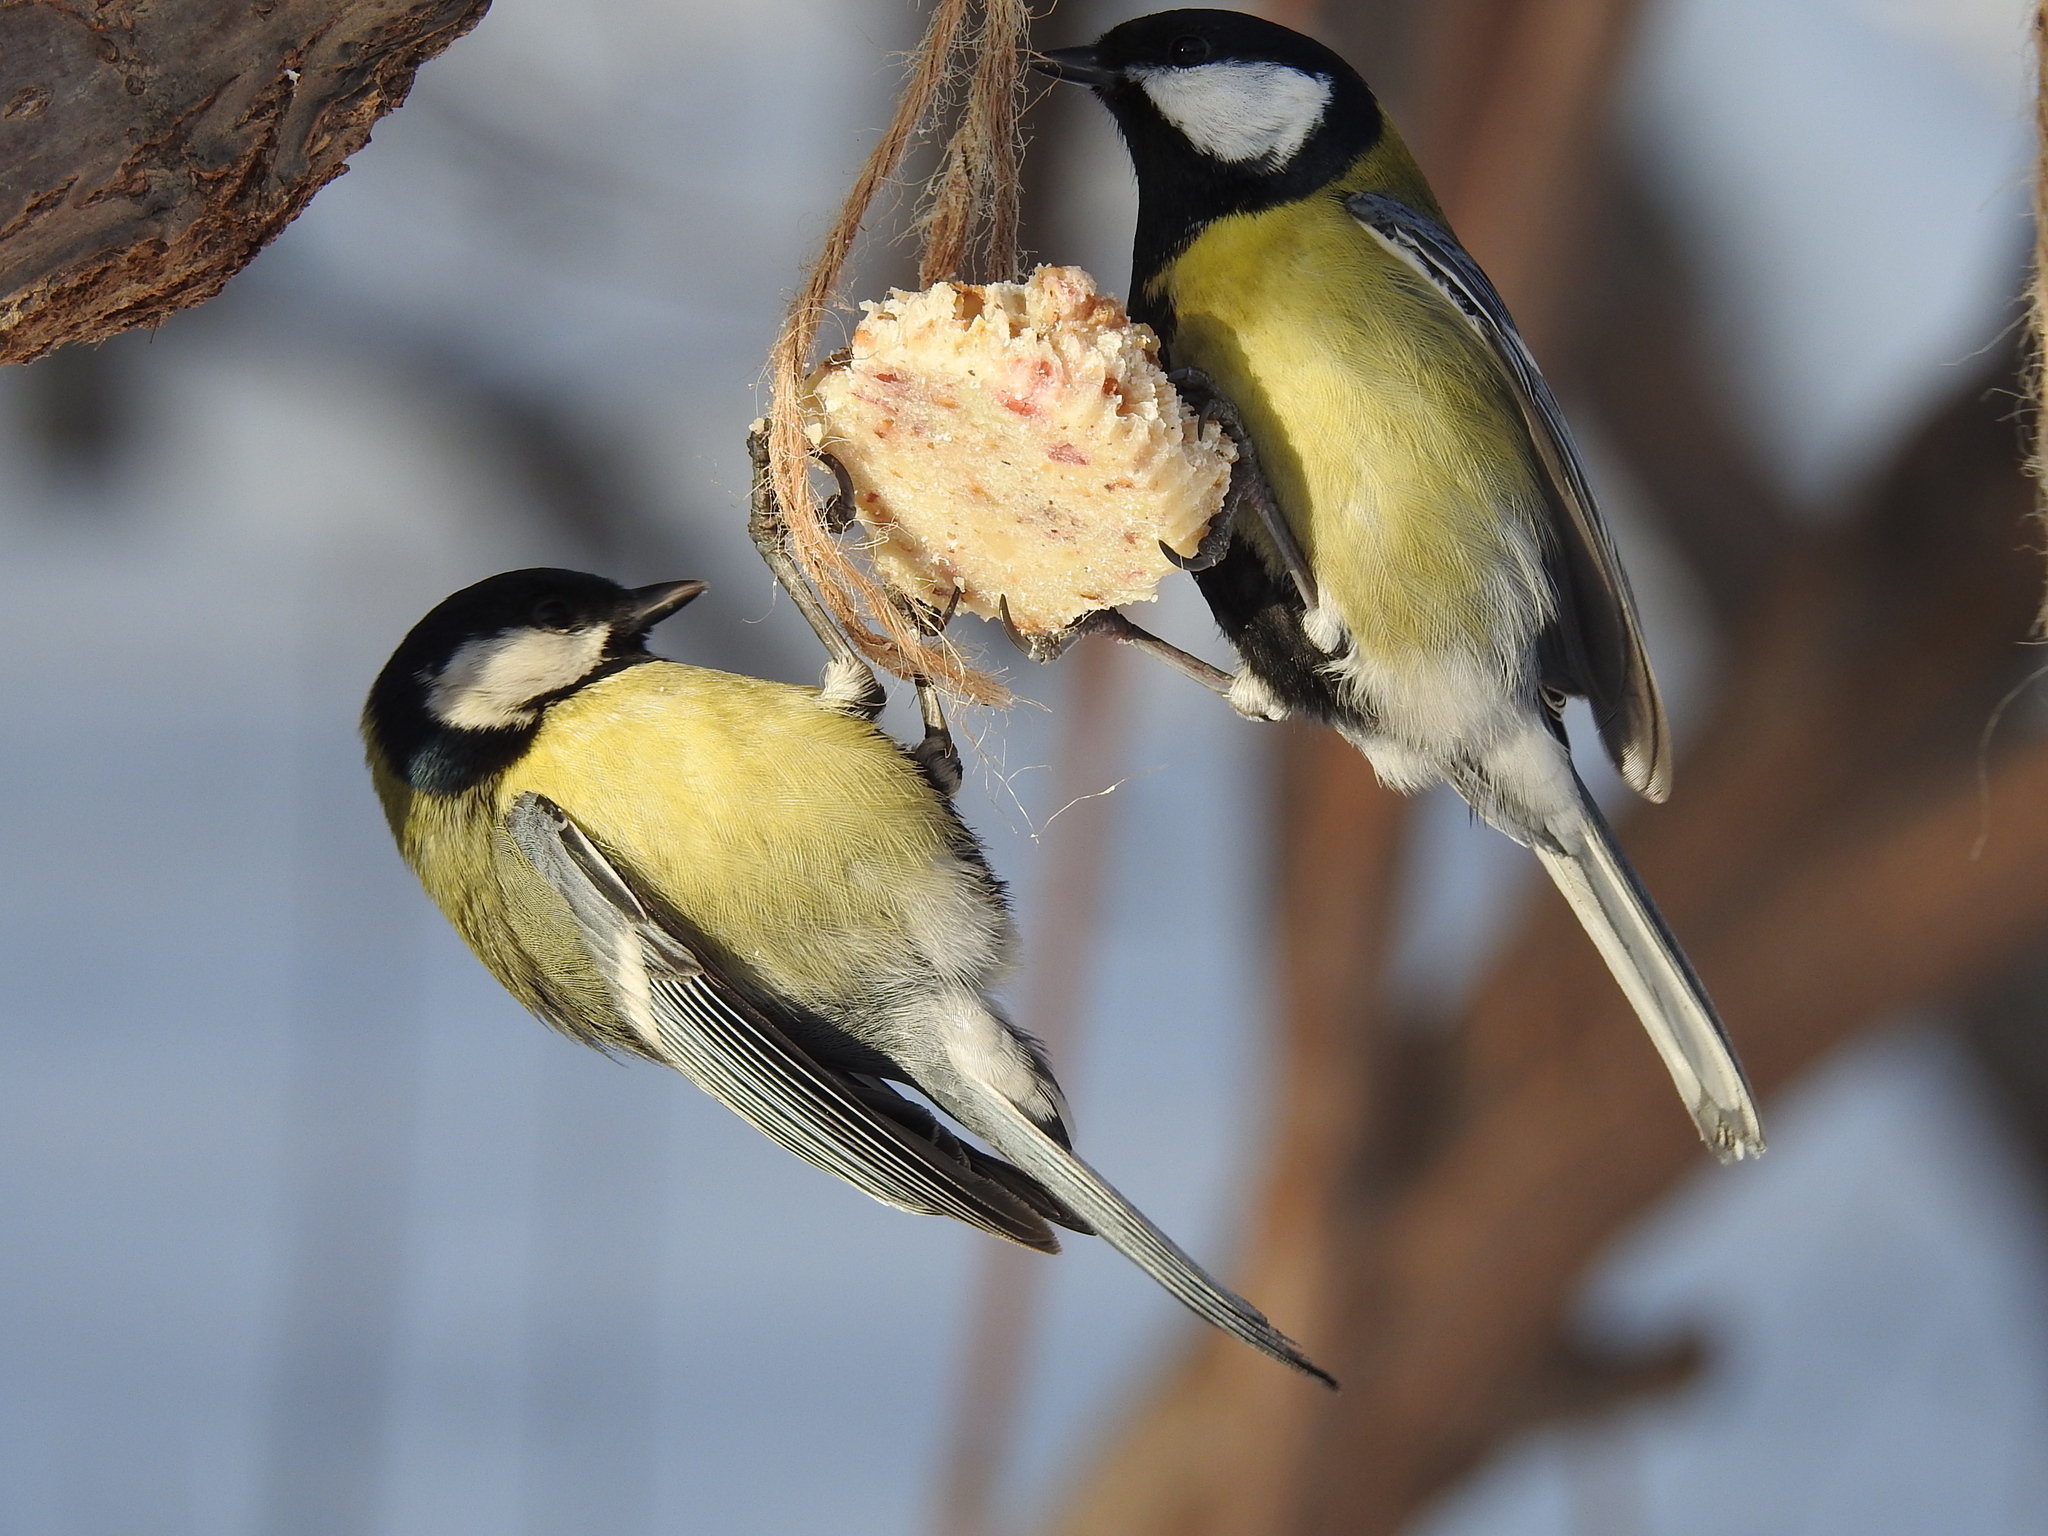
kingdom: Animalia
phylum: Chordata
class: Aves
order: Passeriformes
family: Paridae
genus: Parus
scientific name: Parus major
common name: Great tit
